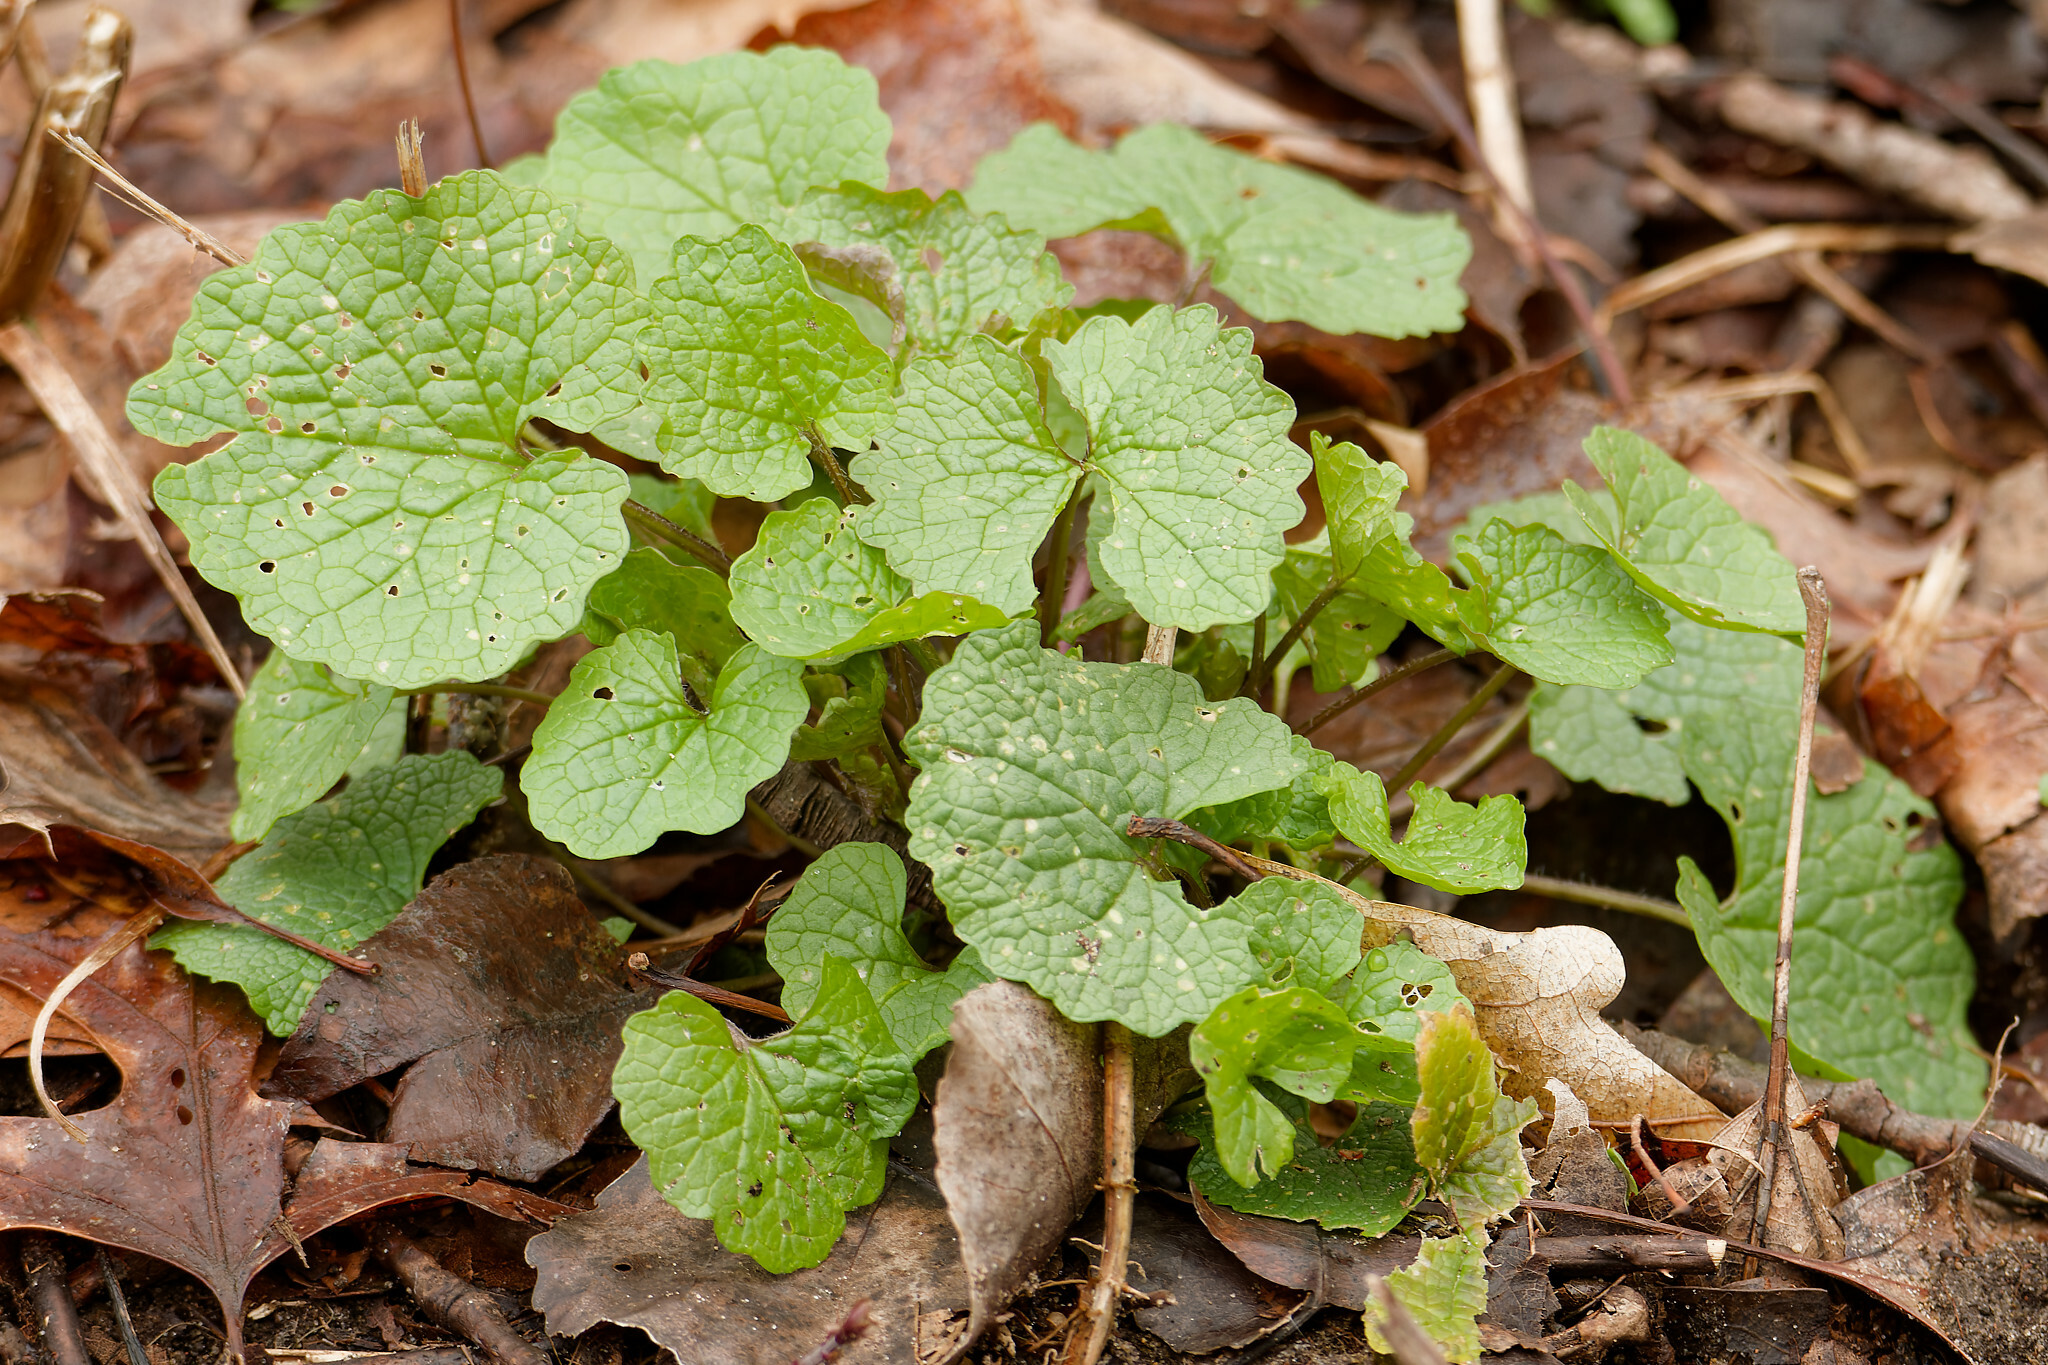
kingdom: Plantae
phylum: Tracheophyta
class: Magnoliopsida
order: Brassicales
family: Brassicaceae
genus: Alliaria
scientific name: Alliaria petiolata
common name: Garlic mustard
